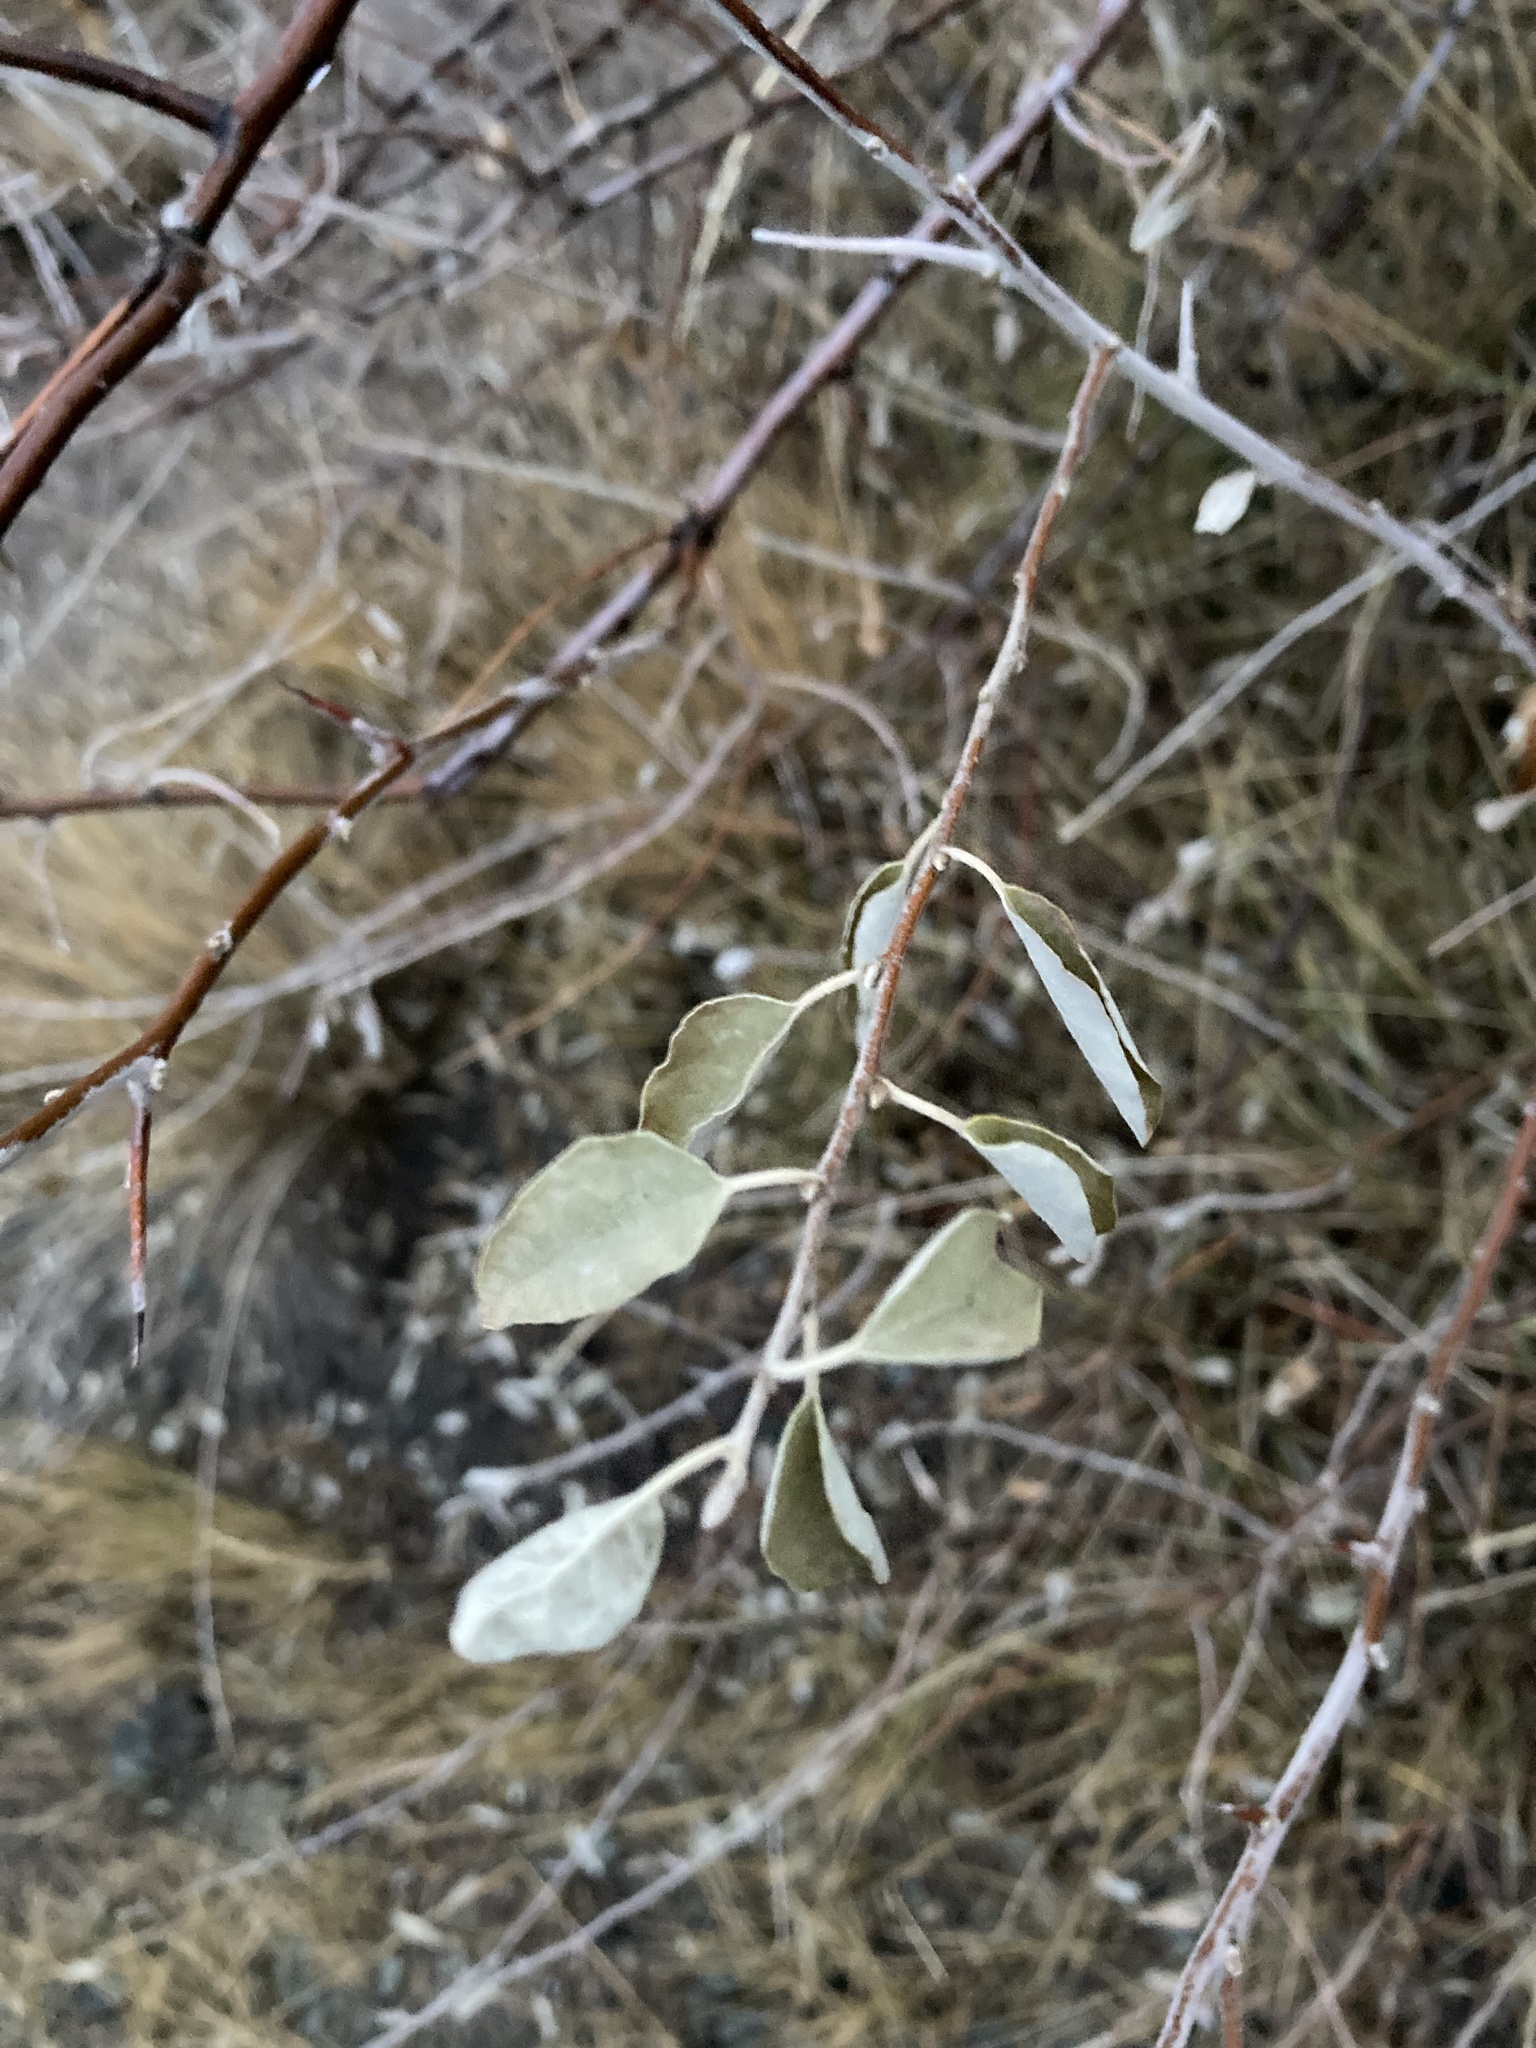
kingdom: Plantae
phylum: Tracheophyta
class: Magnoliopsida
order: Rosales
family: Elaeagnaceae
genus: Elaeagnus
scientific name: Elaeagnus angustifolia
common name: Russian olive
